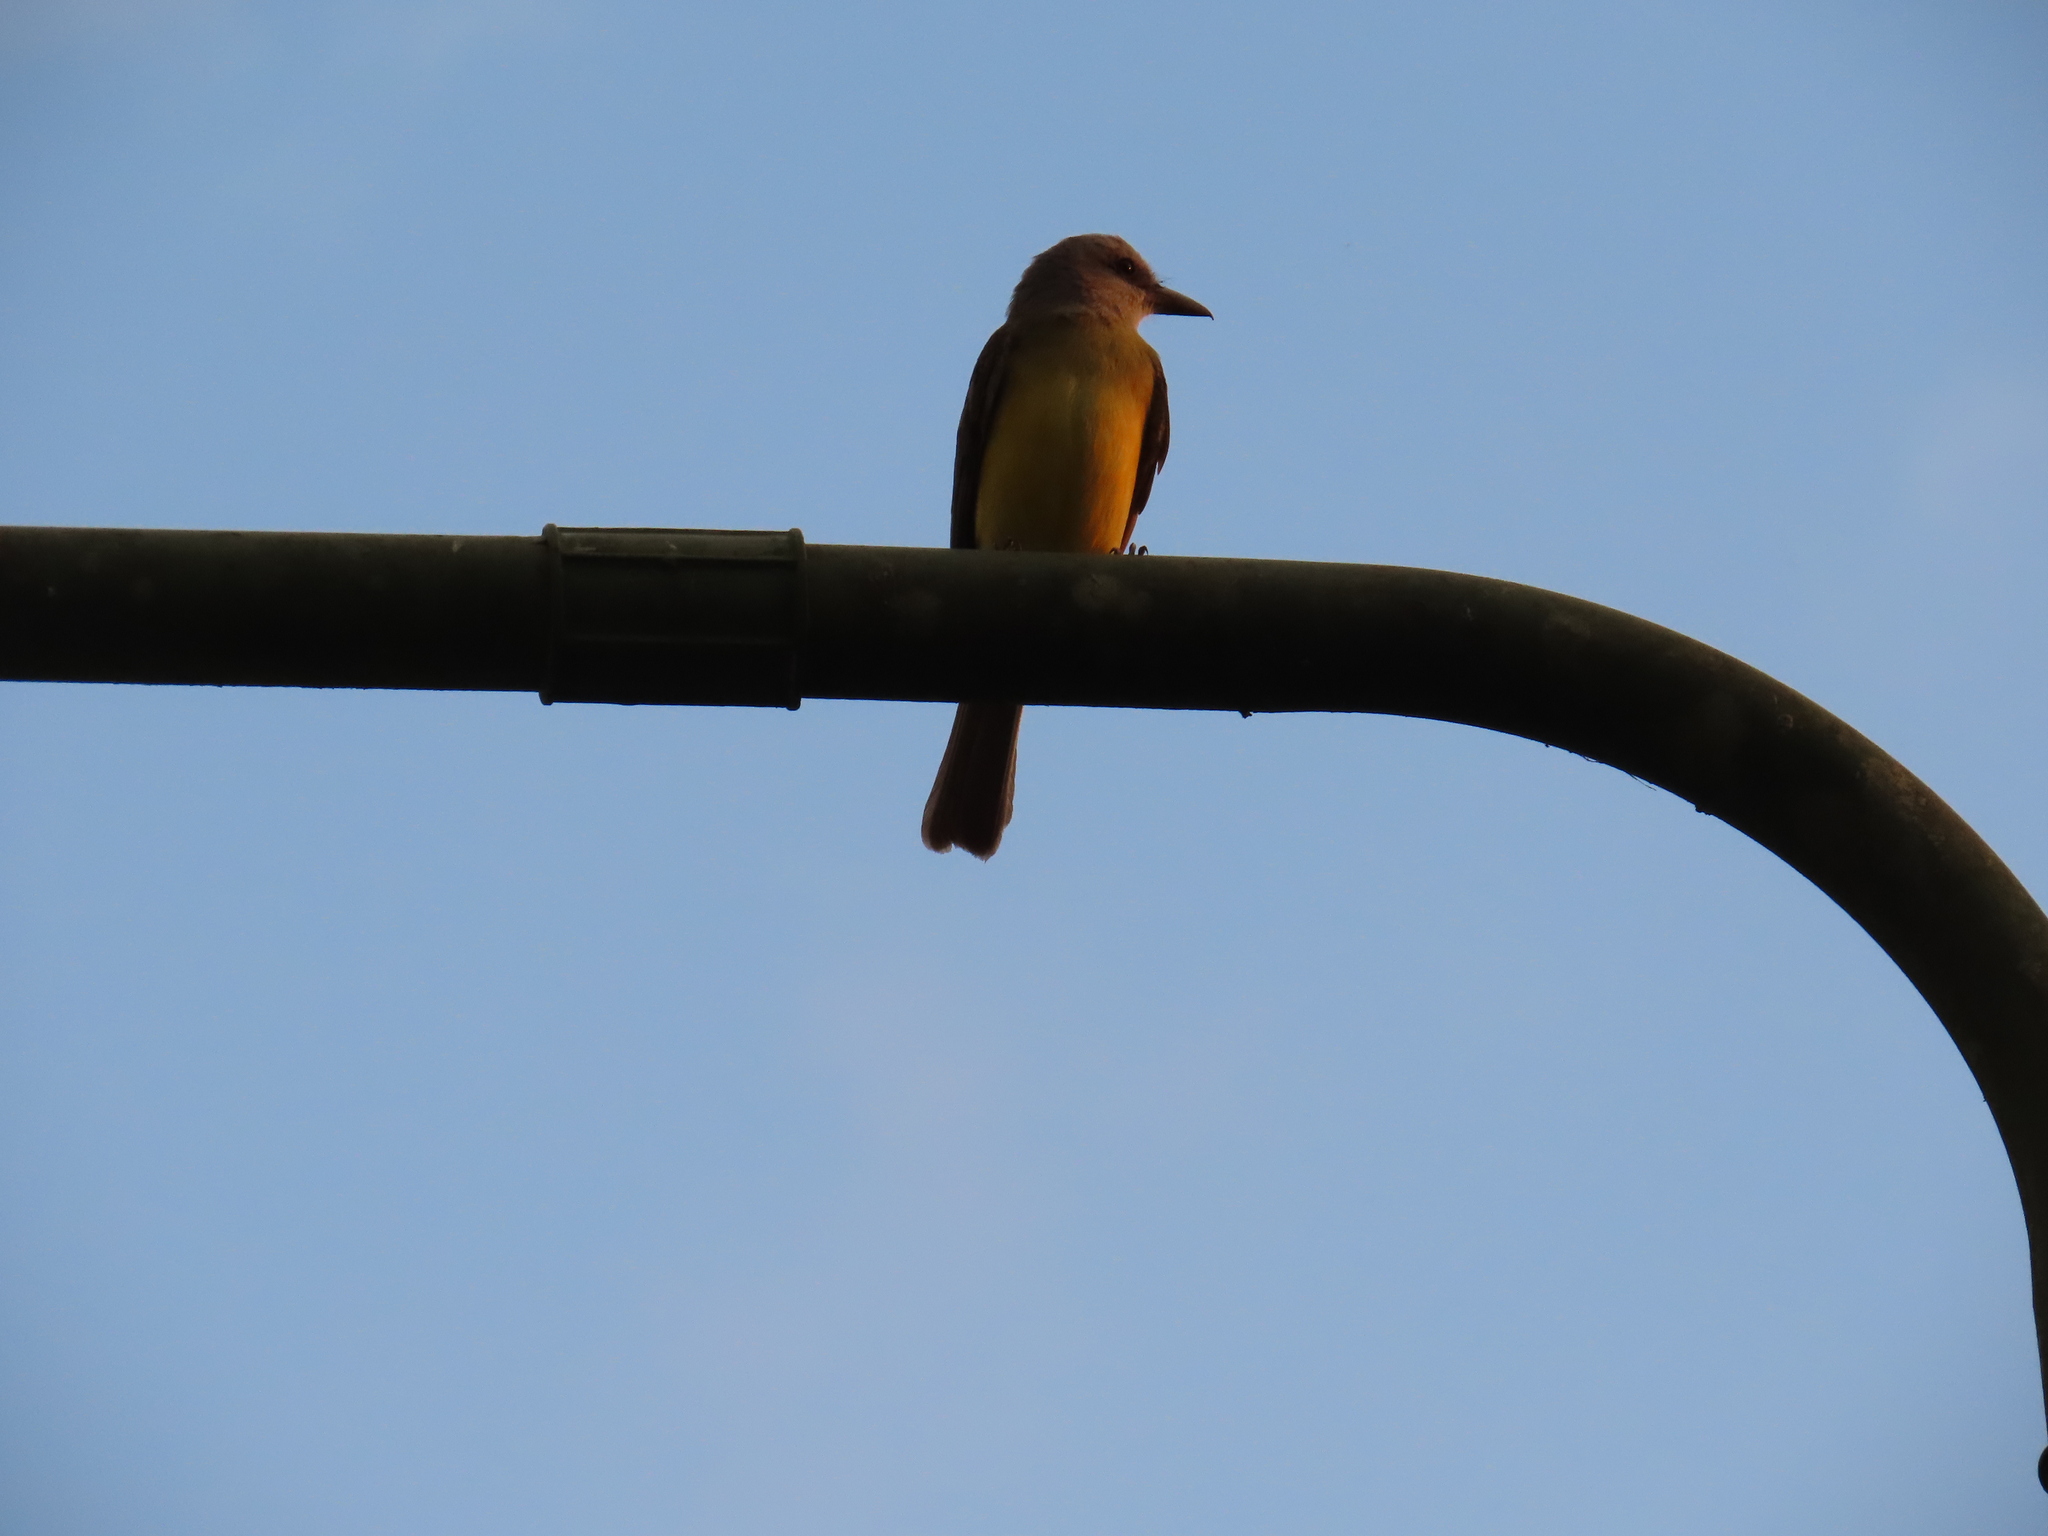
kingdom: Animalia
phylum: Chordata
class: Aves
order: Passeriformes
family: Tyrannidae
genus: Tyrannus
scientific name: Tyrannus melancholicus
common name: Tropical kingbird
